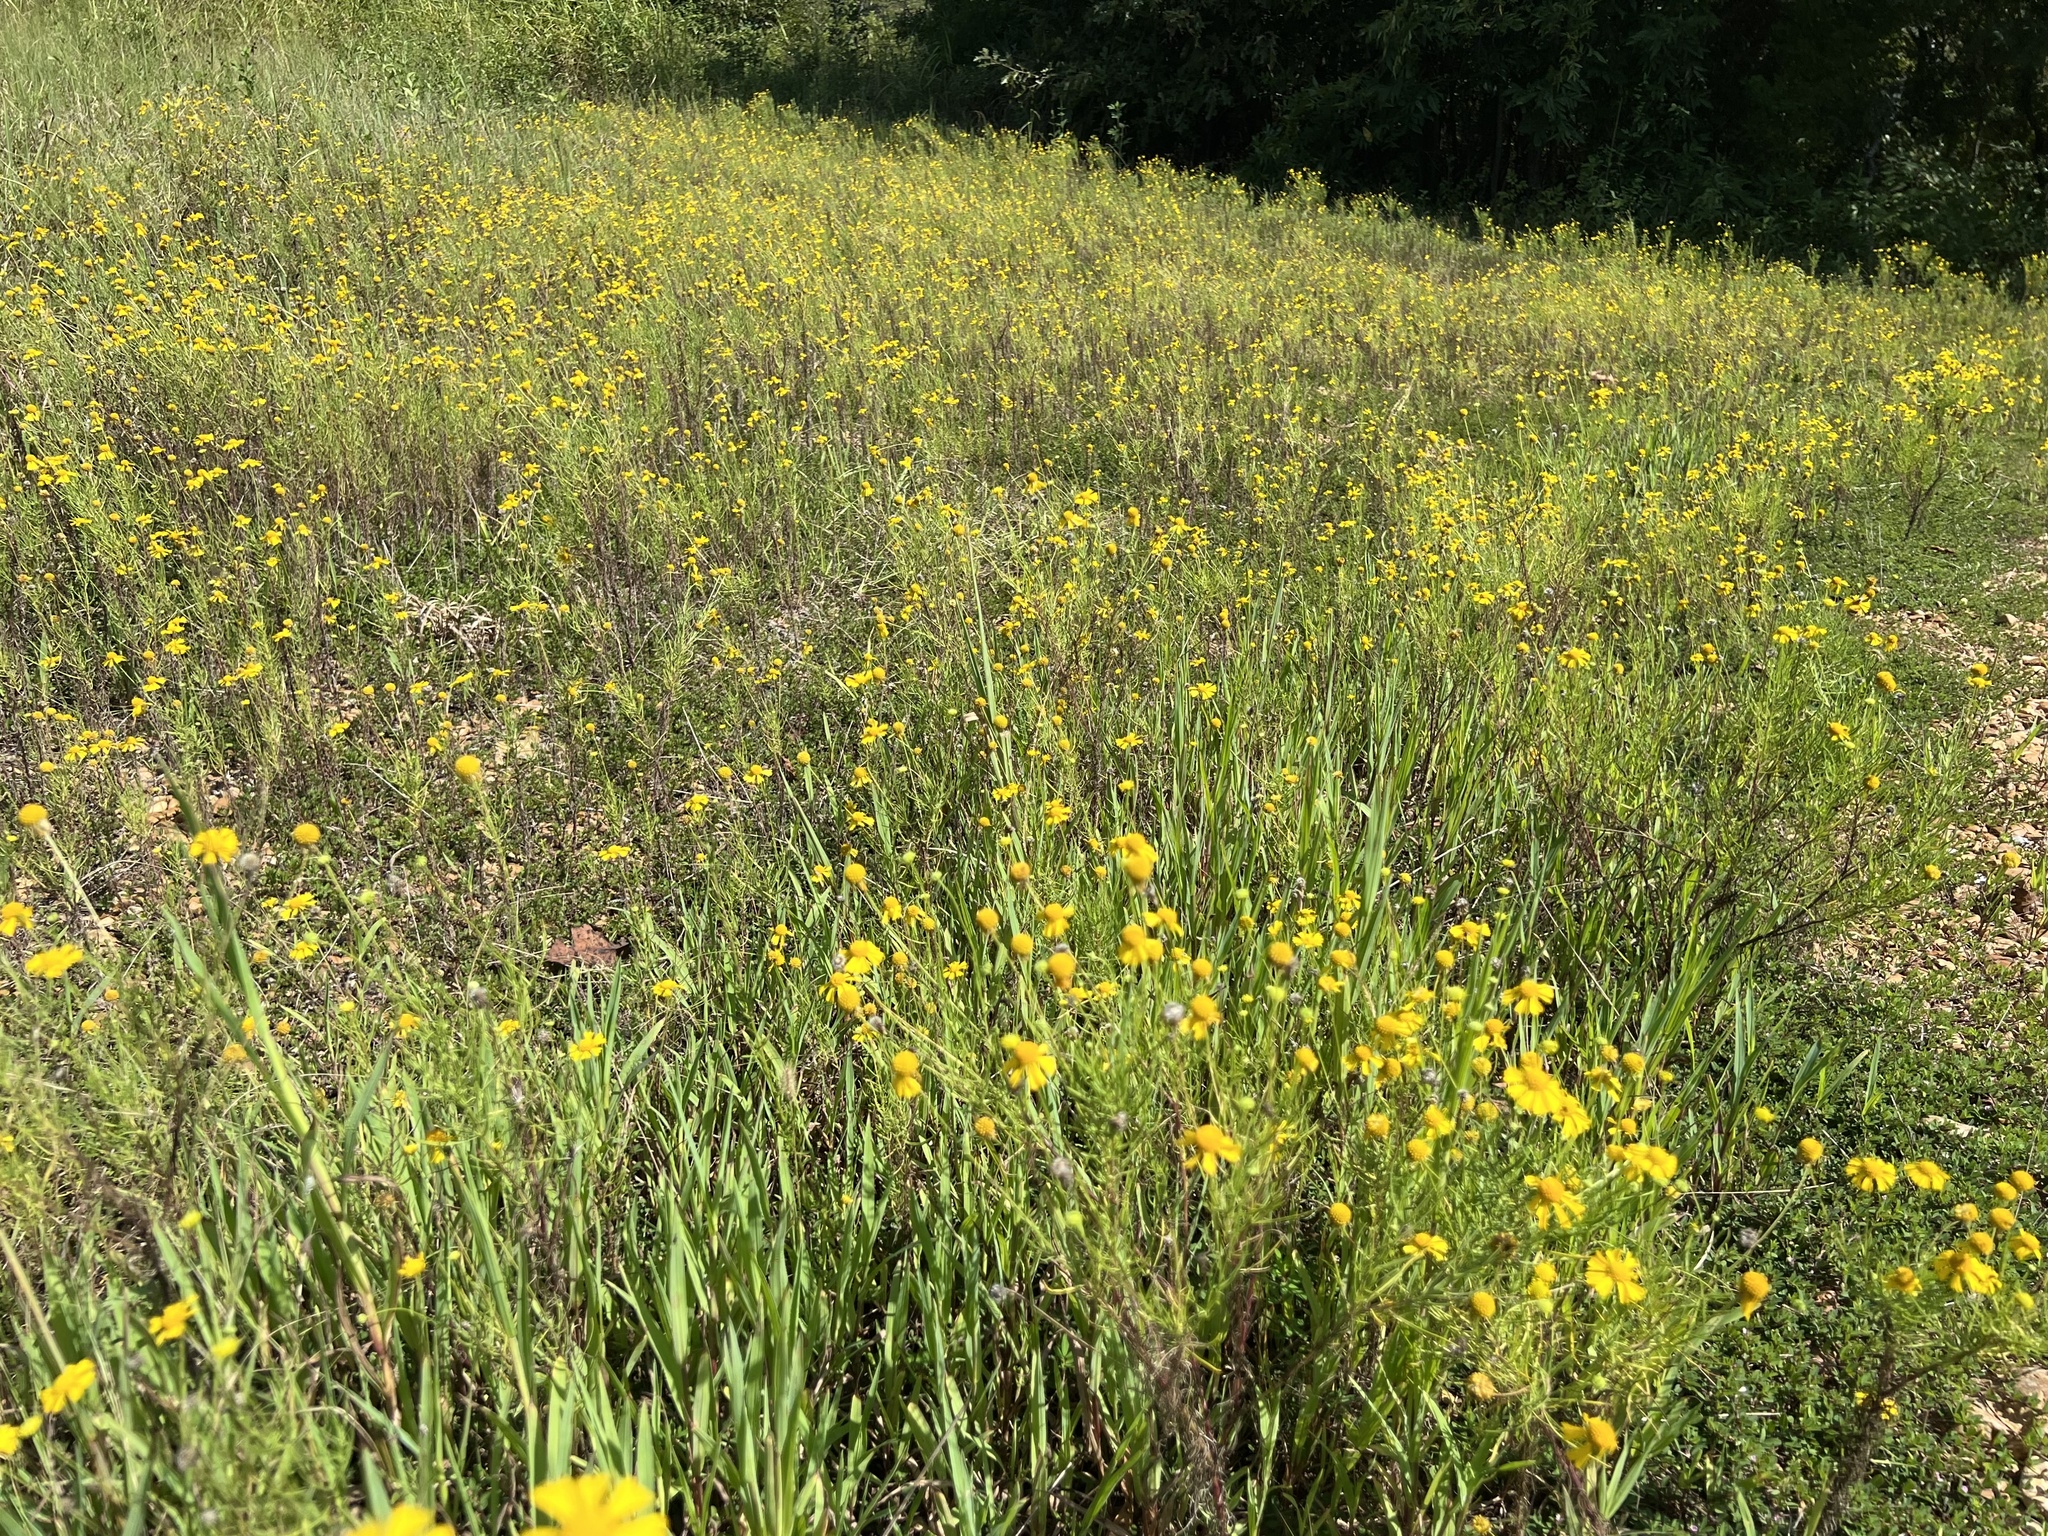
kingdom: Plantae
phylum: Tracheophyta
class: Magnoliopsida
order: Asterales
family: Asteraceae
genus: Helenium
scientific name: Helenium amarum
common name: Bitter sneezeweed
